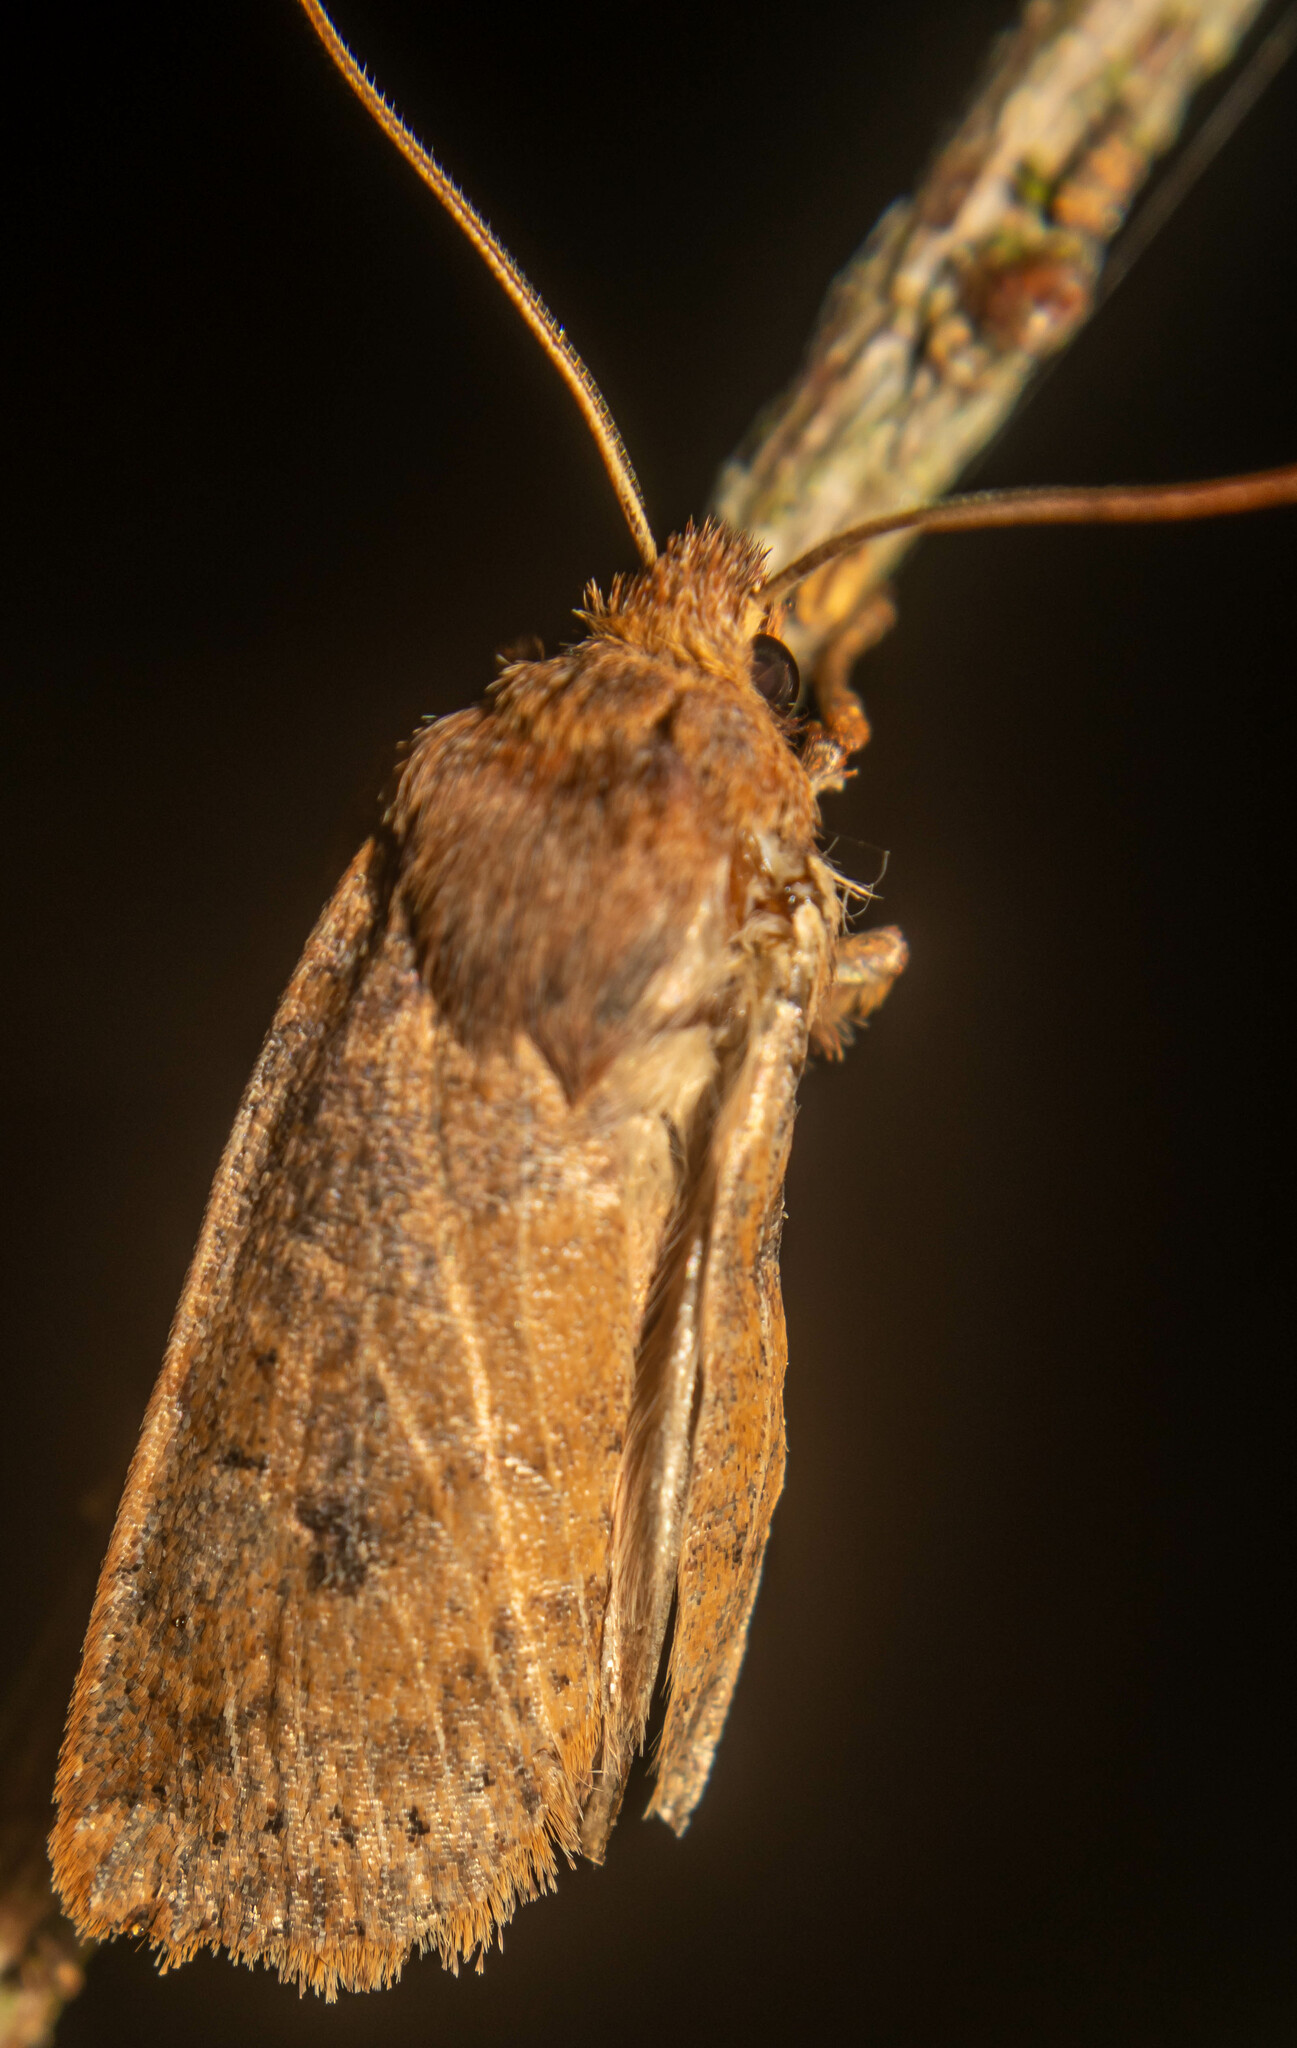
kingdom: Animalia
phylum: Arthropoda
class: Insecta
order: Lepidoptera
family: Noctuidae
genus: Conistra
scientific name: Conistra vaccinii
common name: Chestnut
